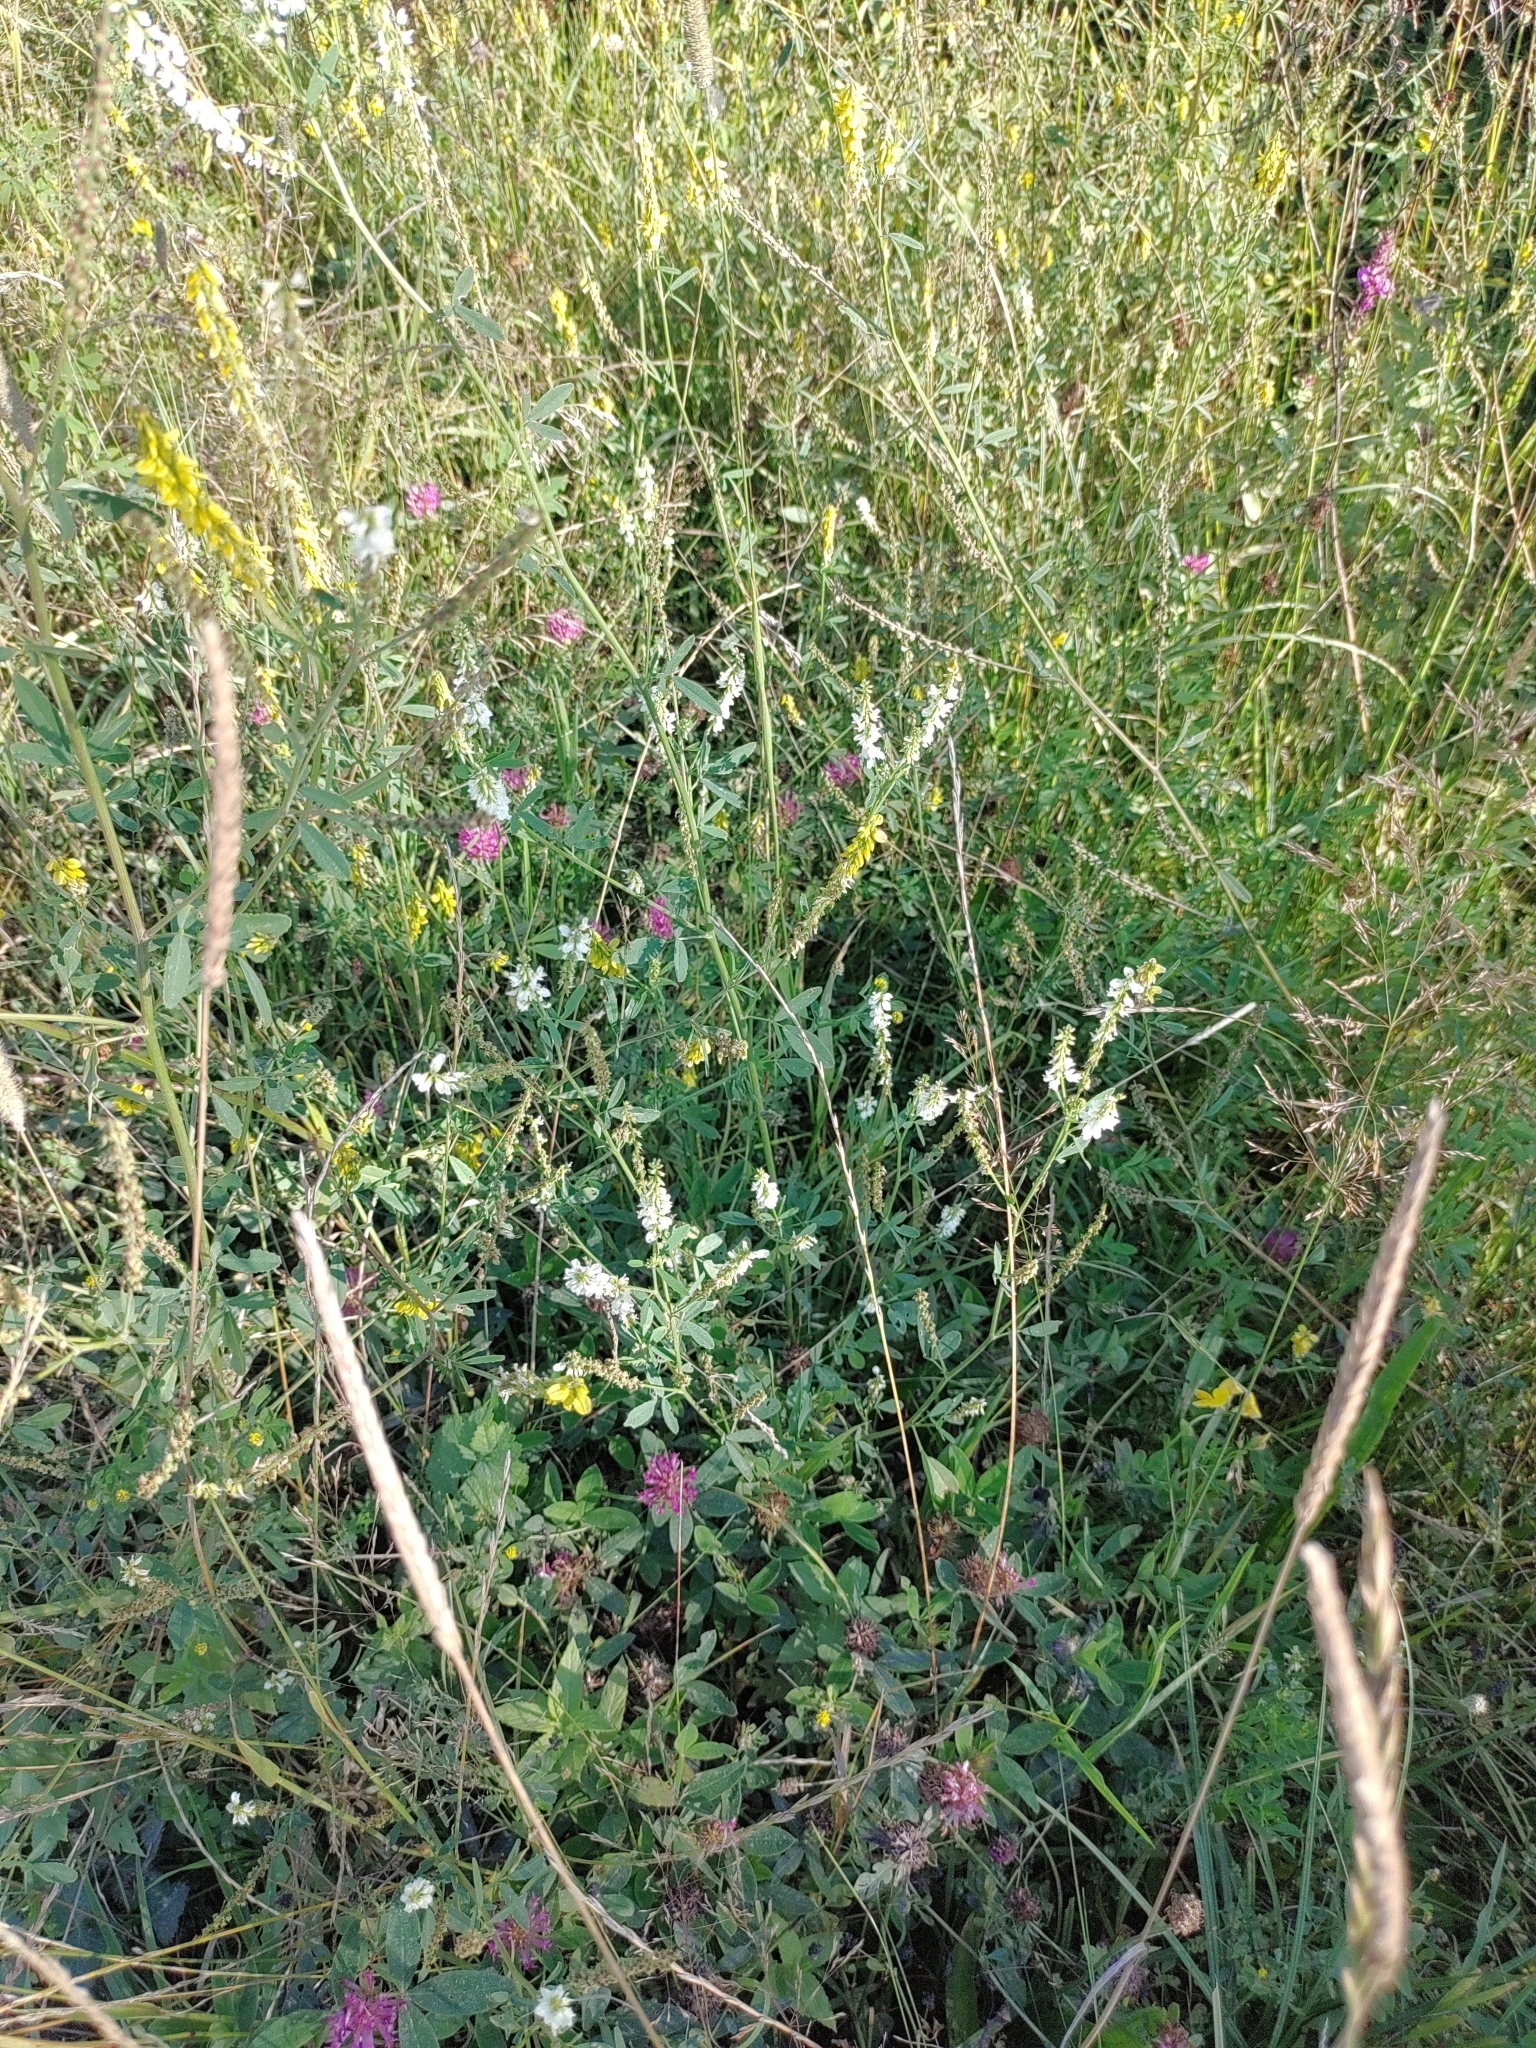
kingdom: Plantae
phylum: Tracheophyta
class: Magnoliopsida
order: Fabales
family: Fabaceae
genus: Melilotus
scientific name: Melilotus albus
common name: White melilot
